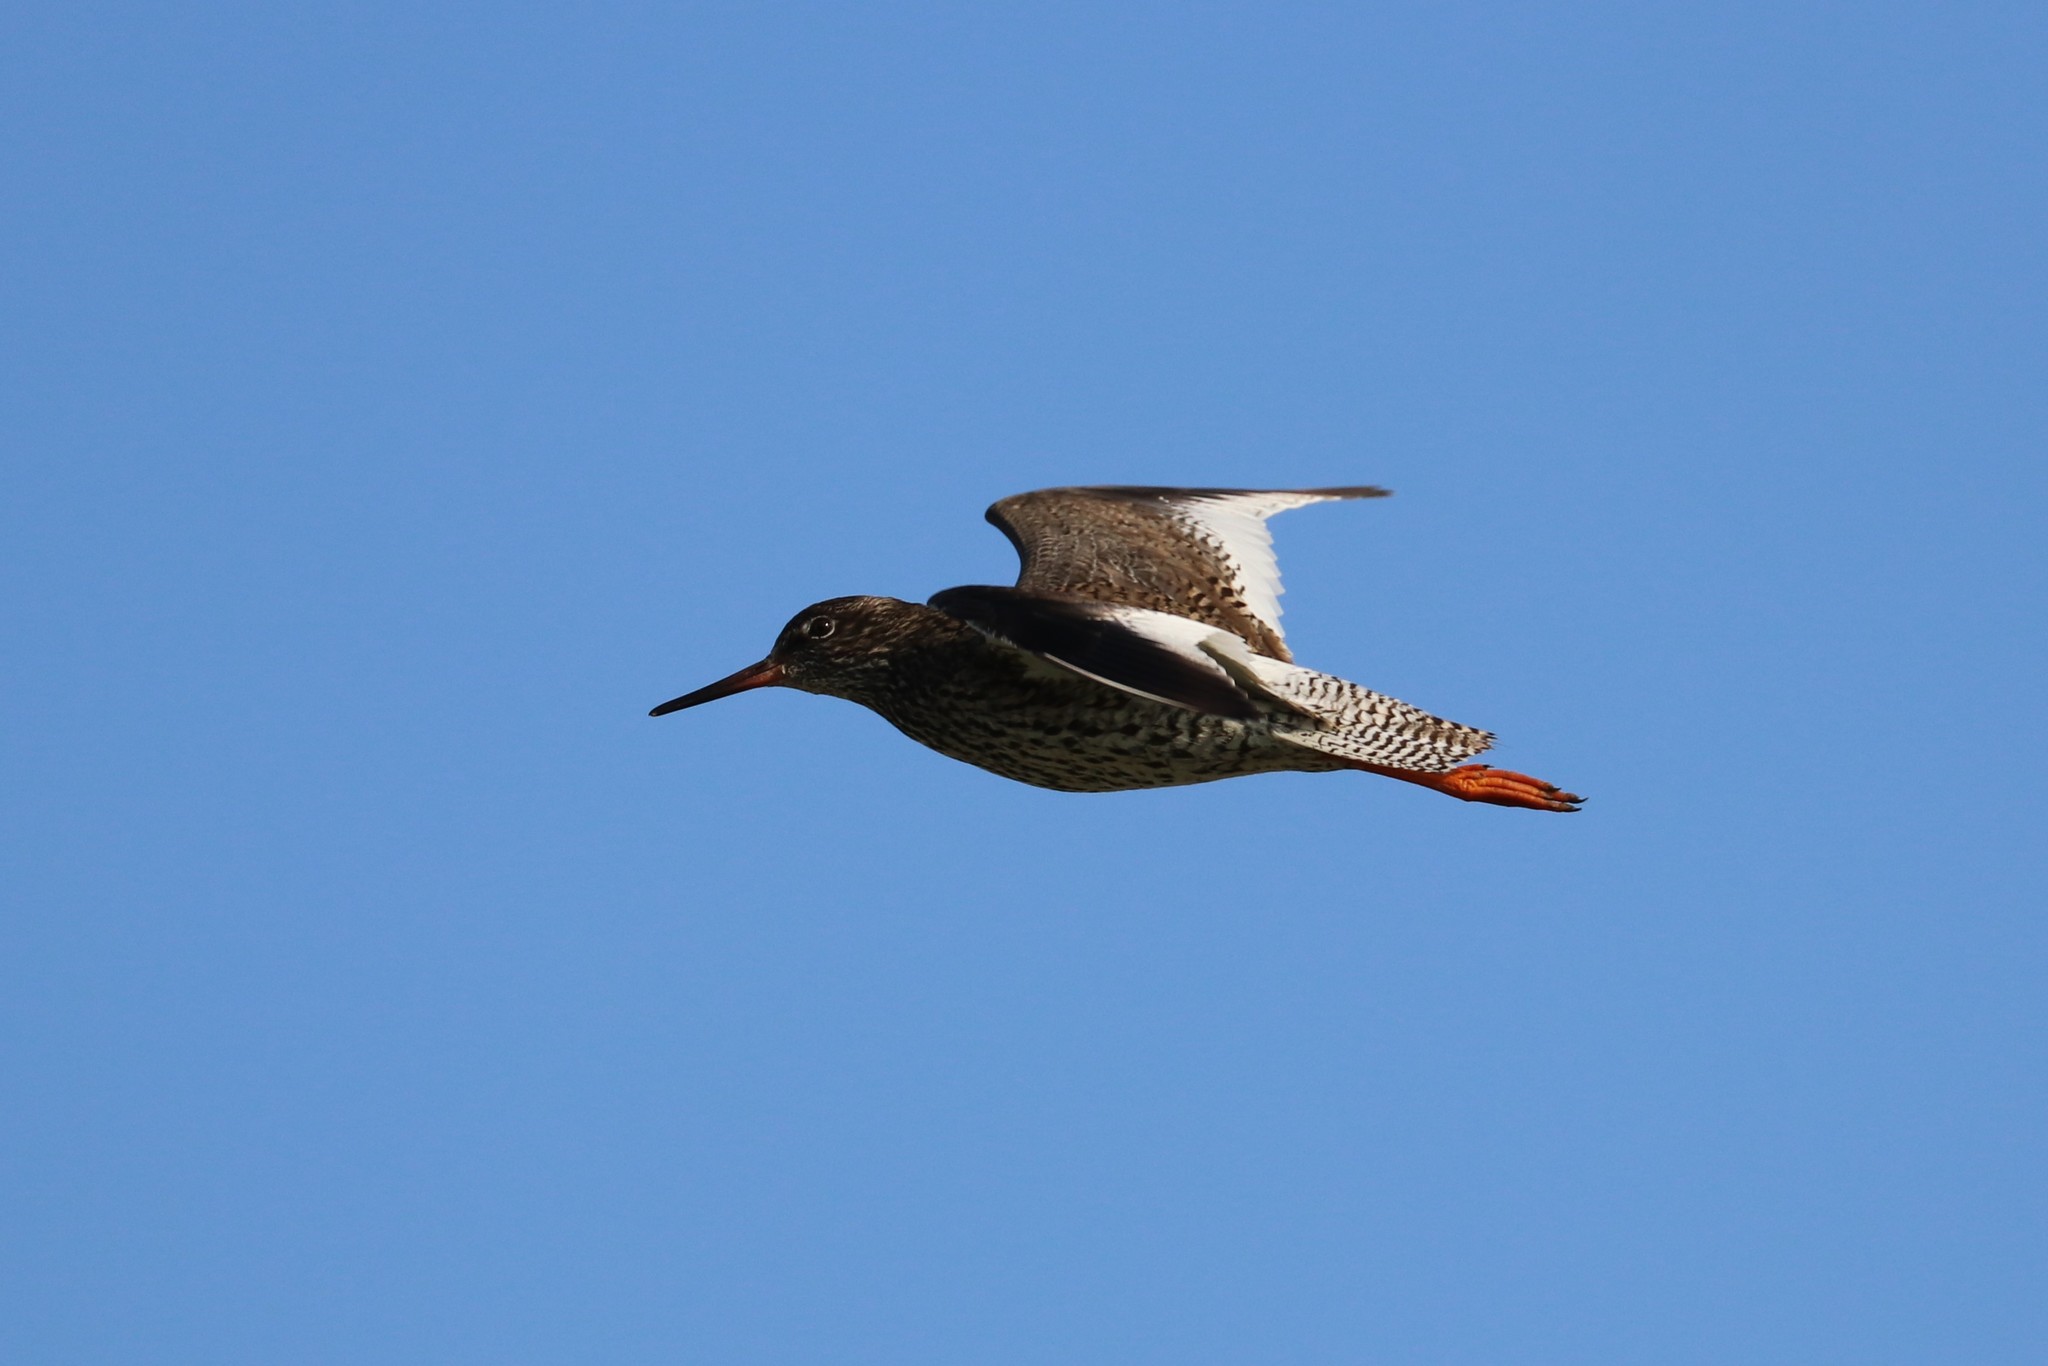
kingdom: Animalia
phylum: Chordata
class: Aves
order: Charadriiformes
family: Scolopacidae
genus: Tringa
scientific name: Tringa totanus
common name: Common redshank
